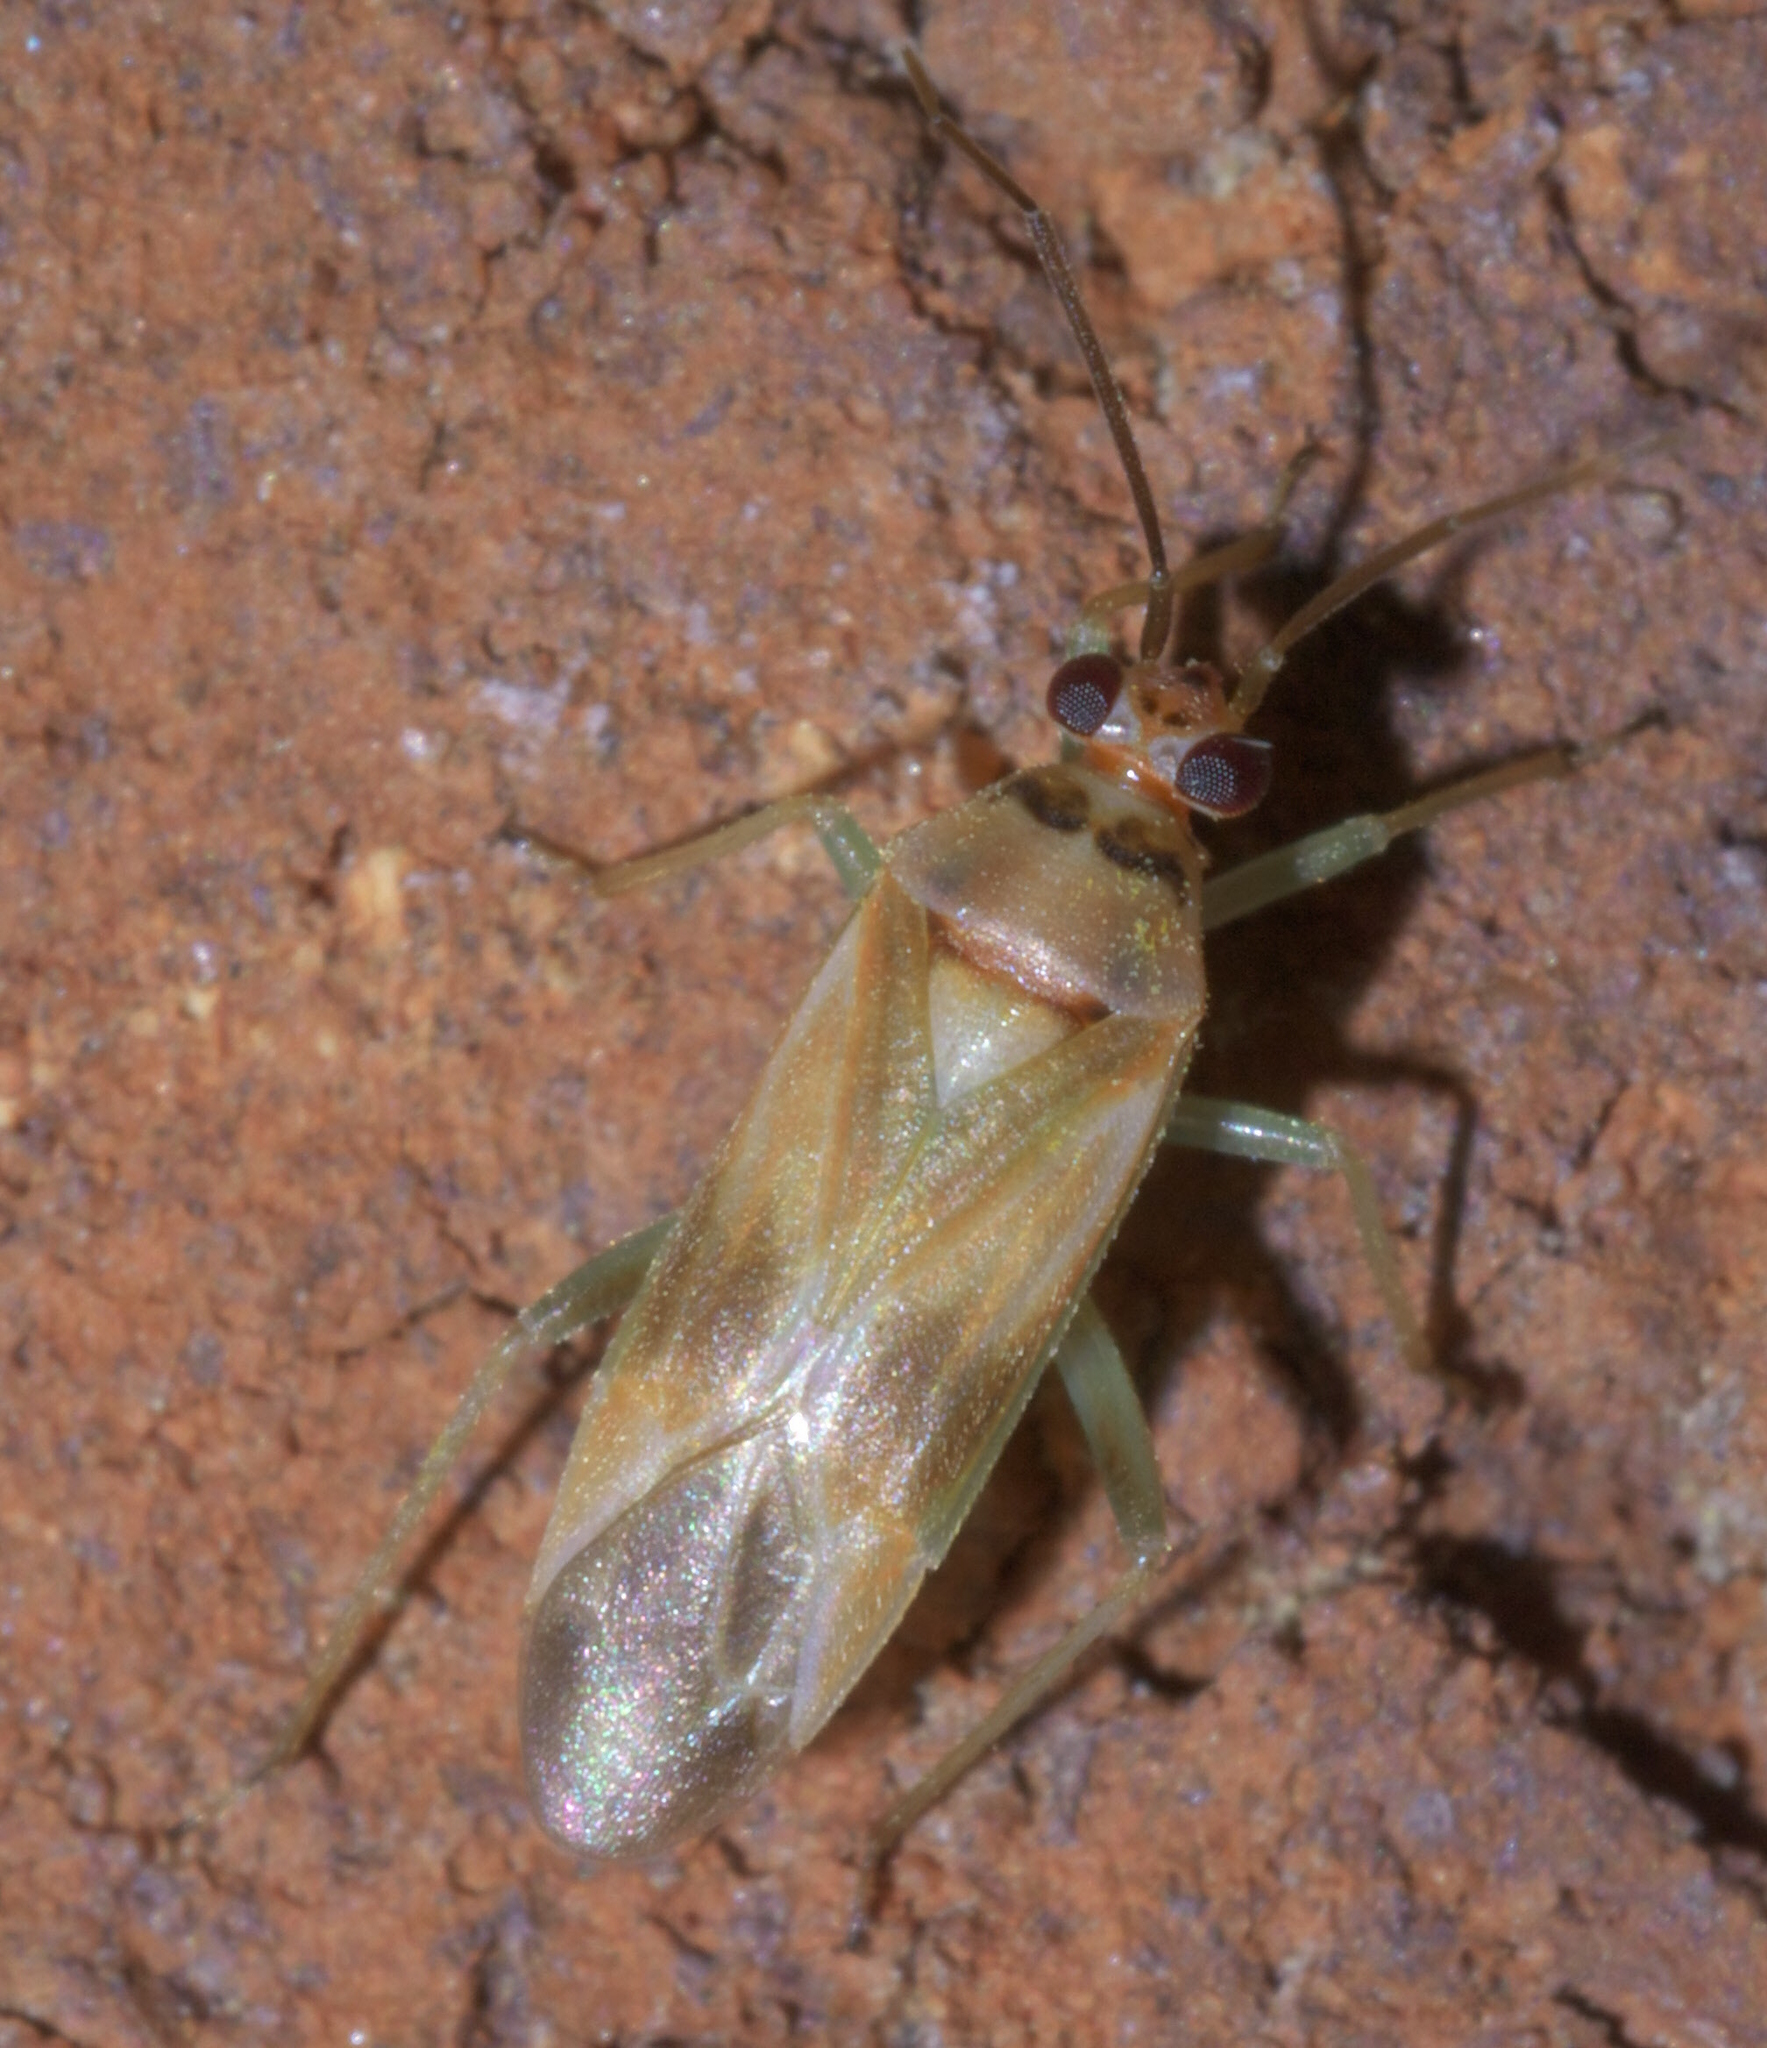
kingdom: Animalia
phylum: Arthropoda
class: Insecta
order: Hemiptera
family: Miridae
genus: Orthotylus
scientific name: Orthotylus ornatus
